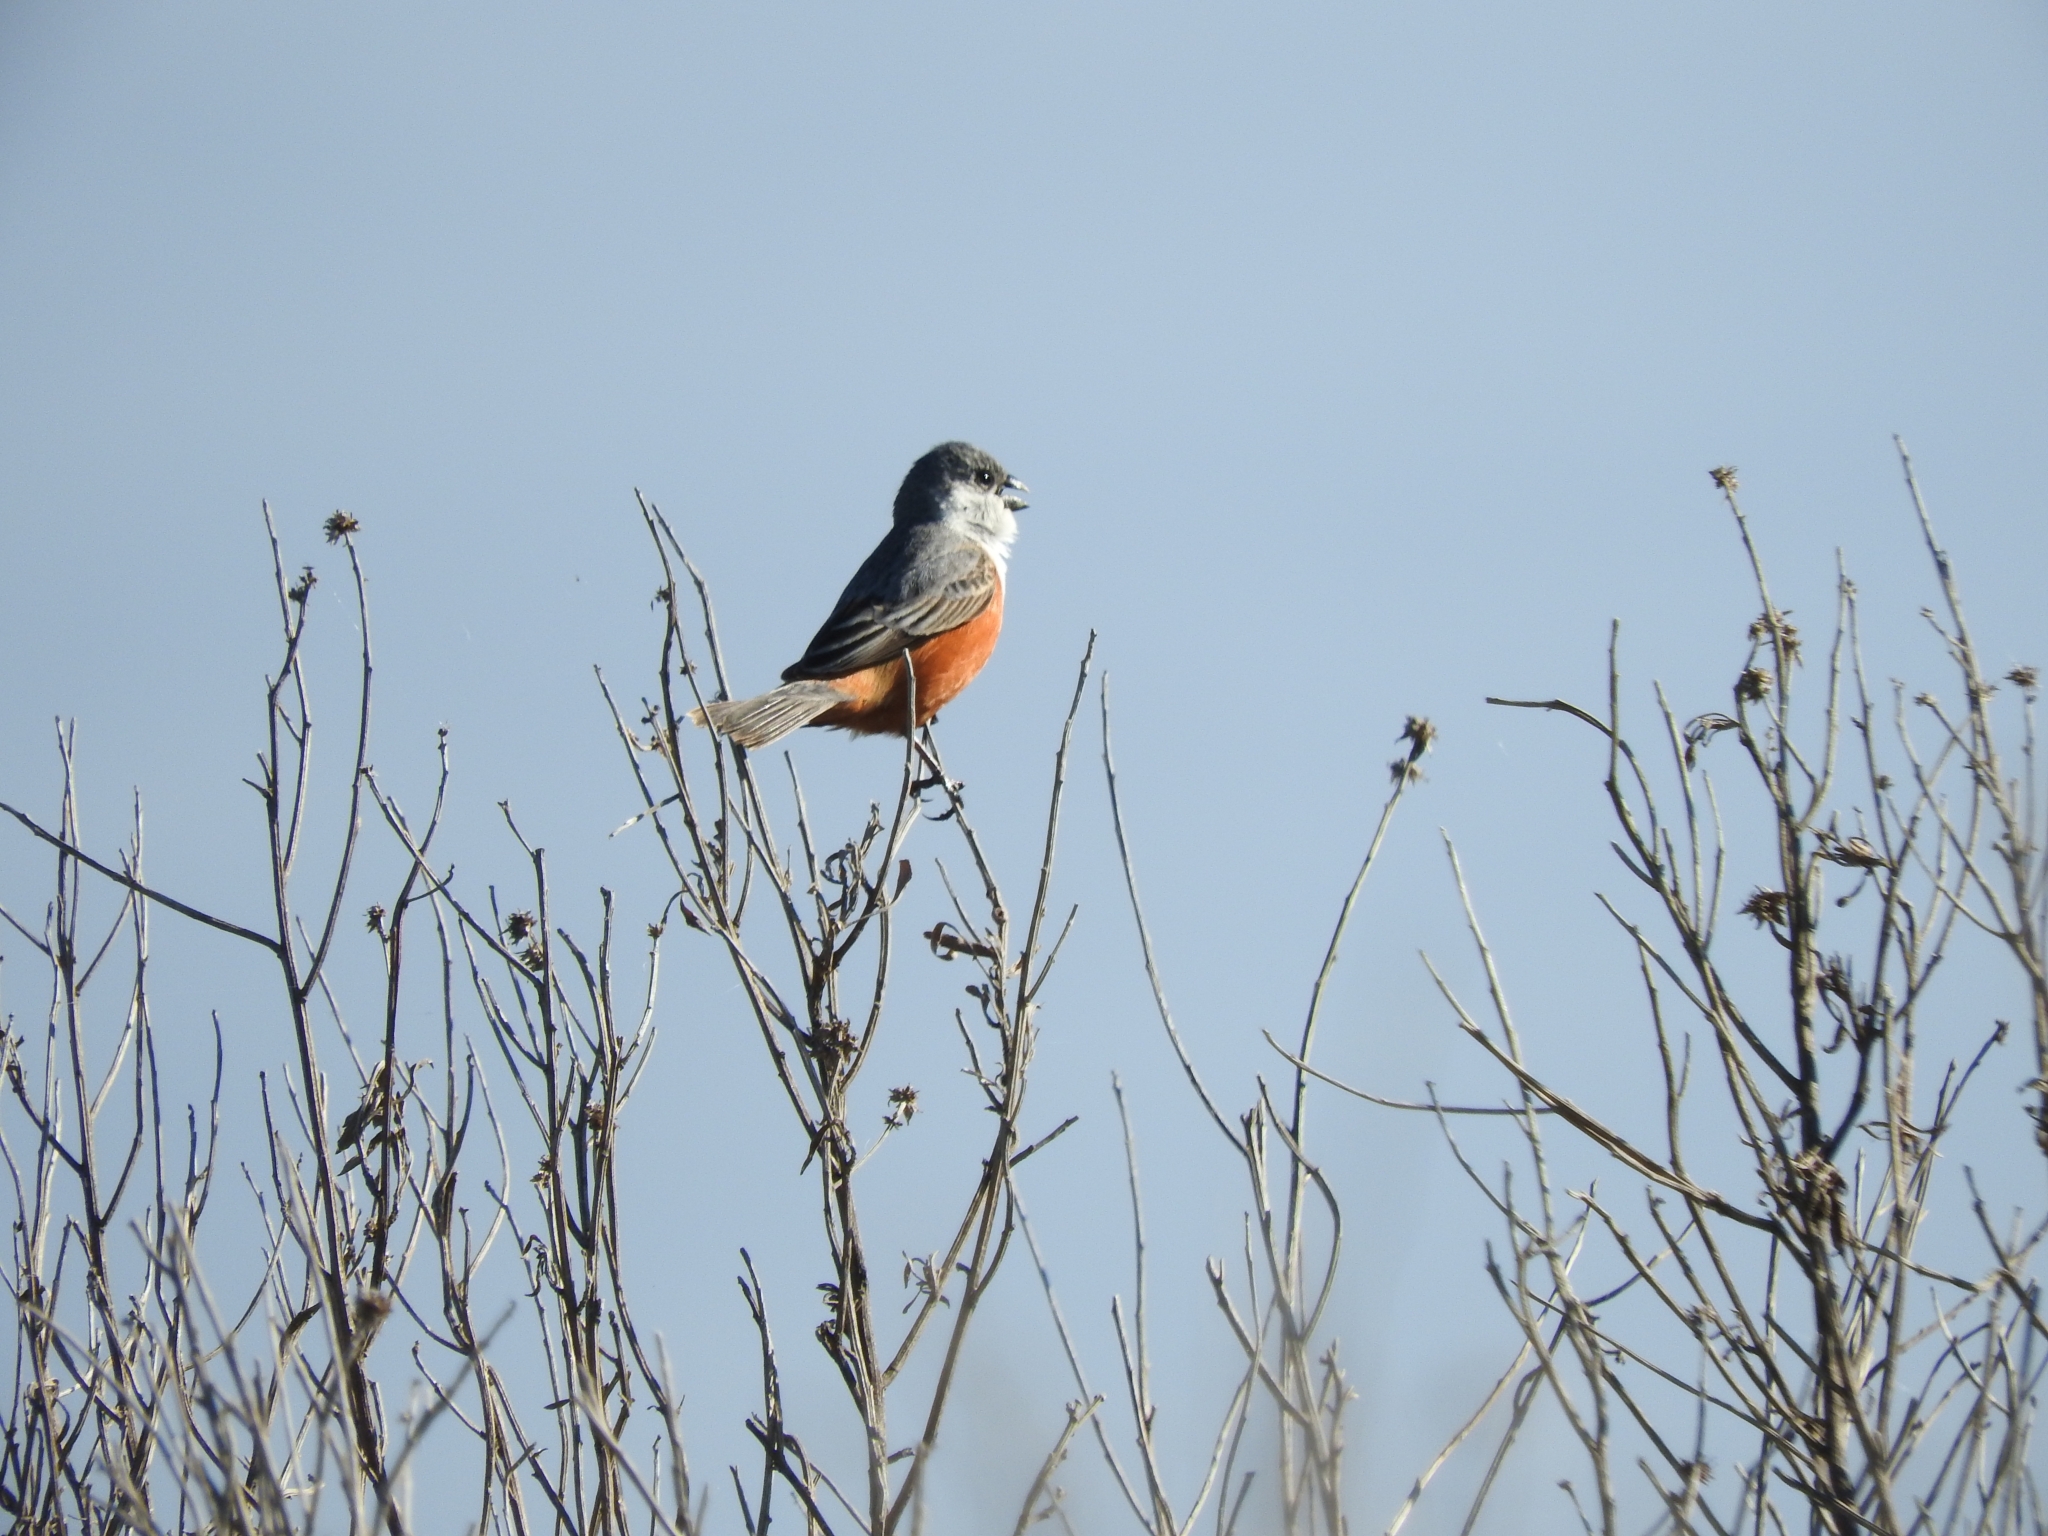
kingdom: Animalia
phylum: Chordata
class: Aves
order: Passeriformes
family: Thraupidae
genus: Sporophila
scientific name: Sporophila palustris
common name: Marsh seedeater
